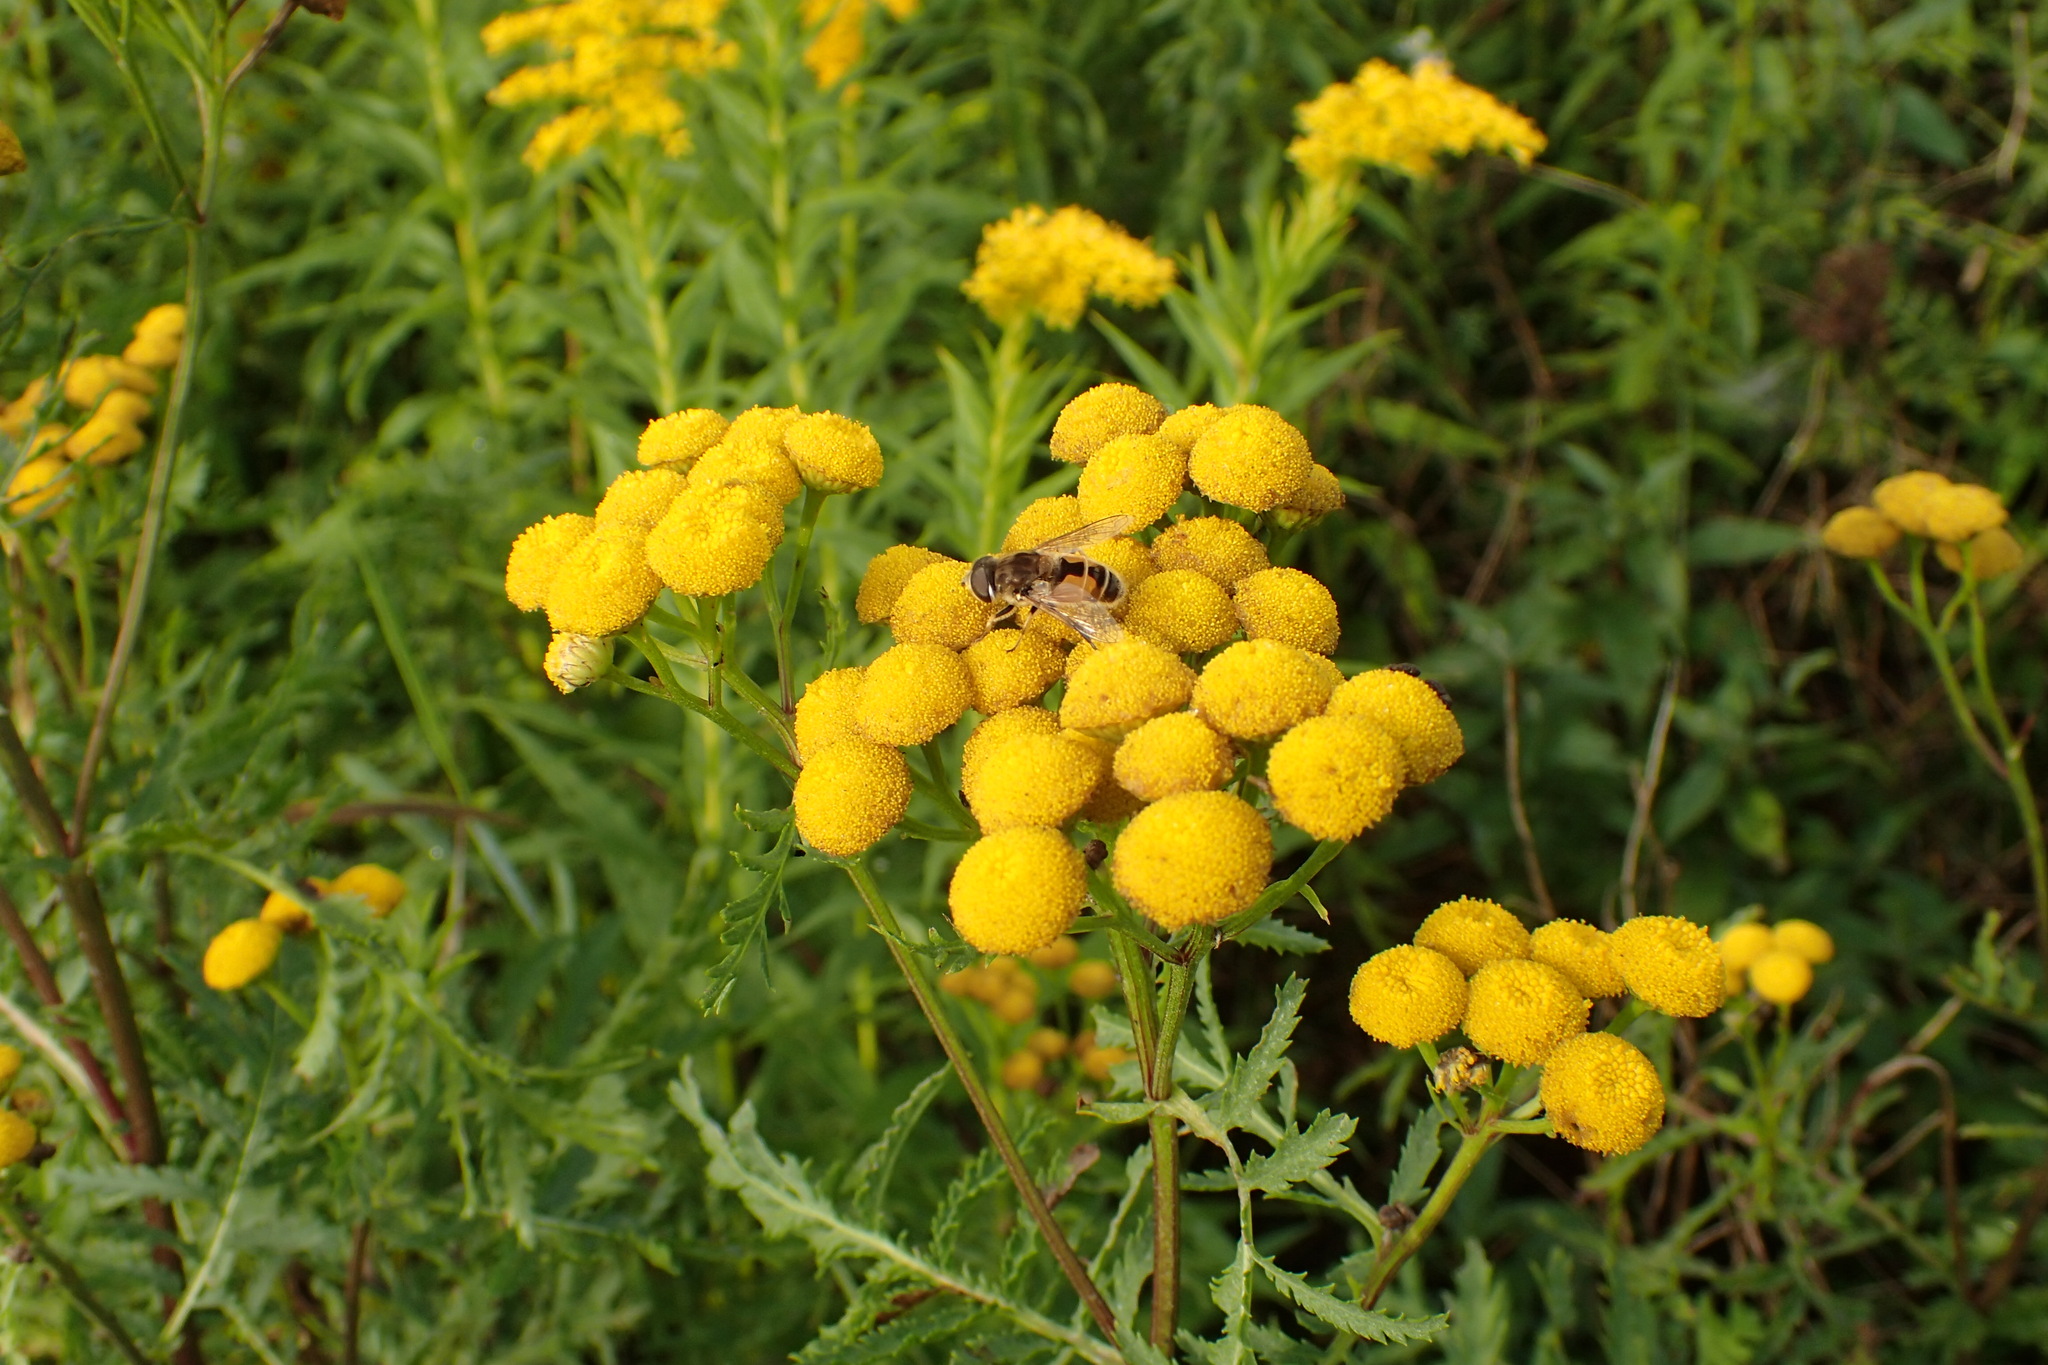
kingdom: Animalia
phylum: Arthropoda
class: Insecta
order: Diptera
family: Syrphidae
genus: Eristalis
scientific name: Eristalis arbustorum
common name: Hover fly
